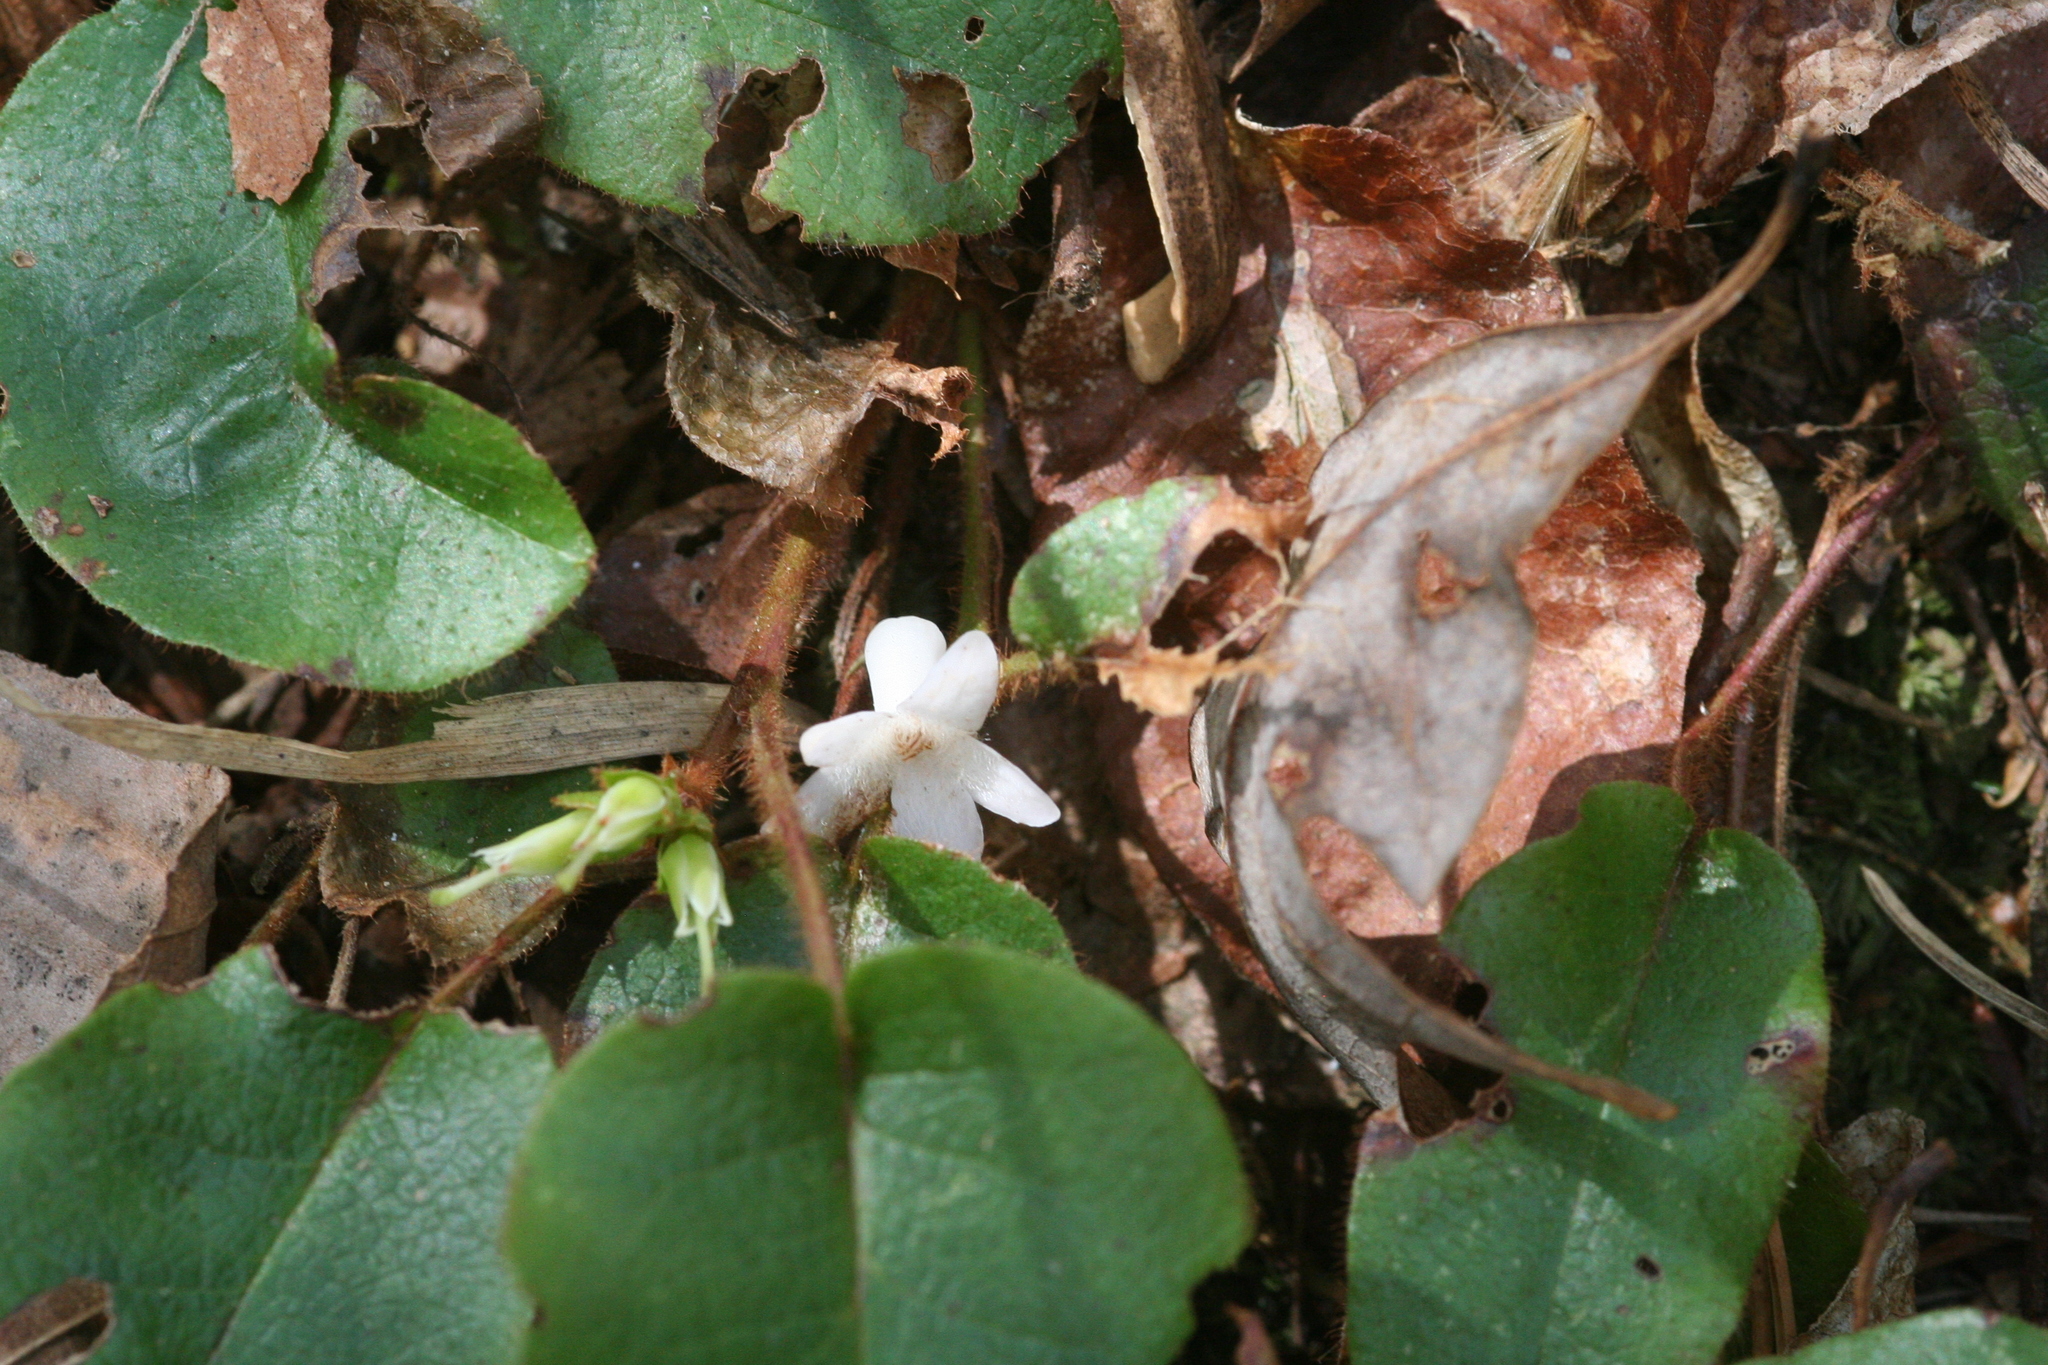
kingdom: Plantae
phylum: Tracheophyta
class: Magnoliopsida
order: Ericales
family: Ericaceae
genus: Epigaea
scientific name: Epigaea repens
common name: Gravelroot
